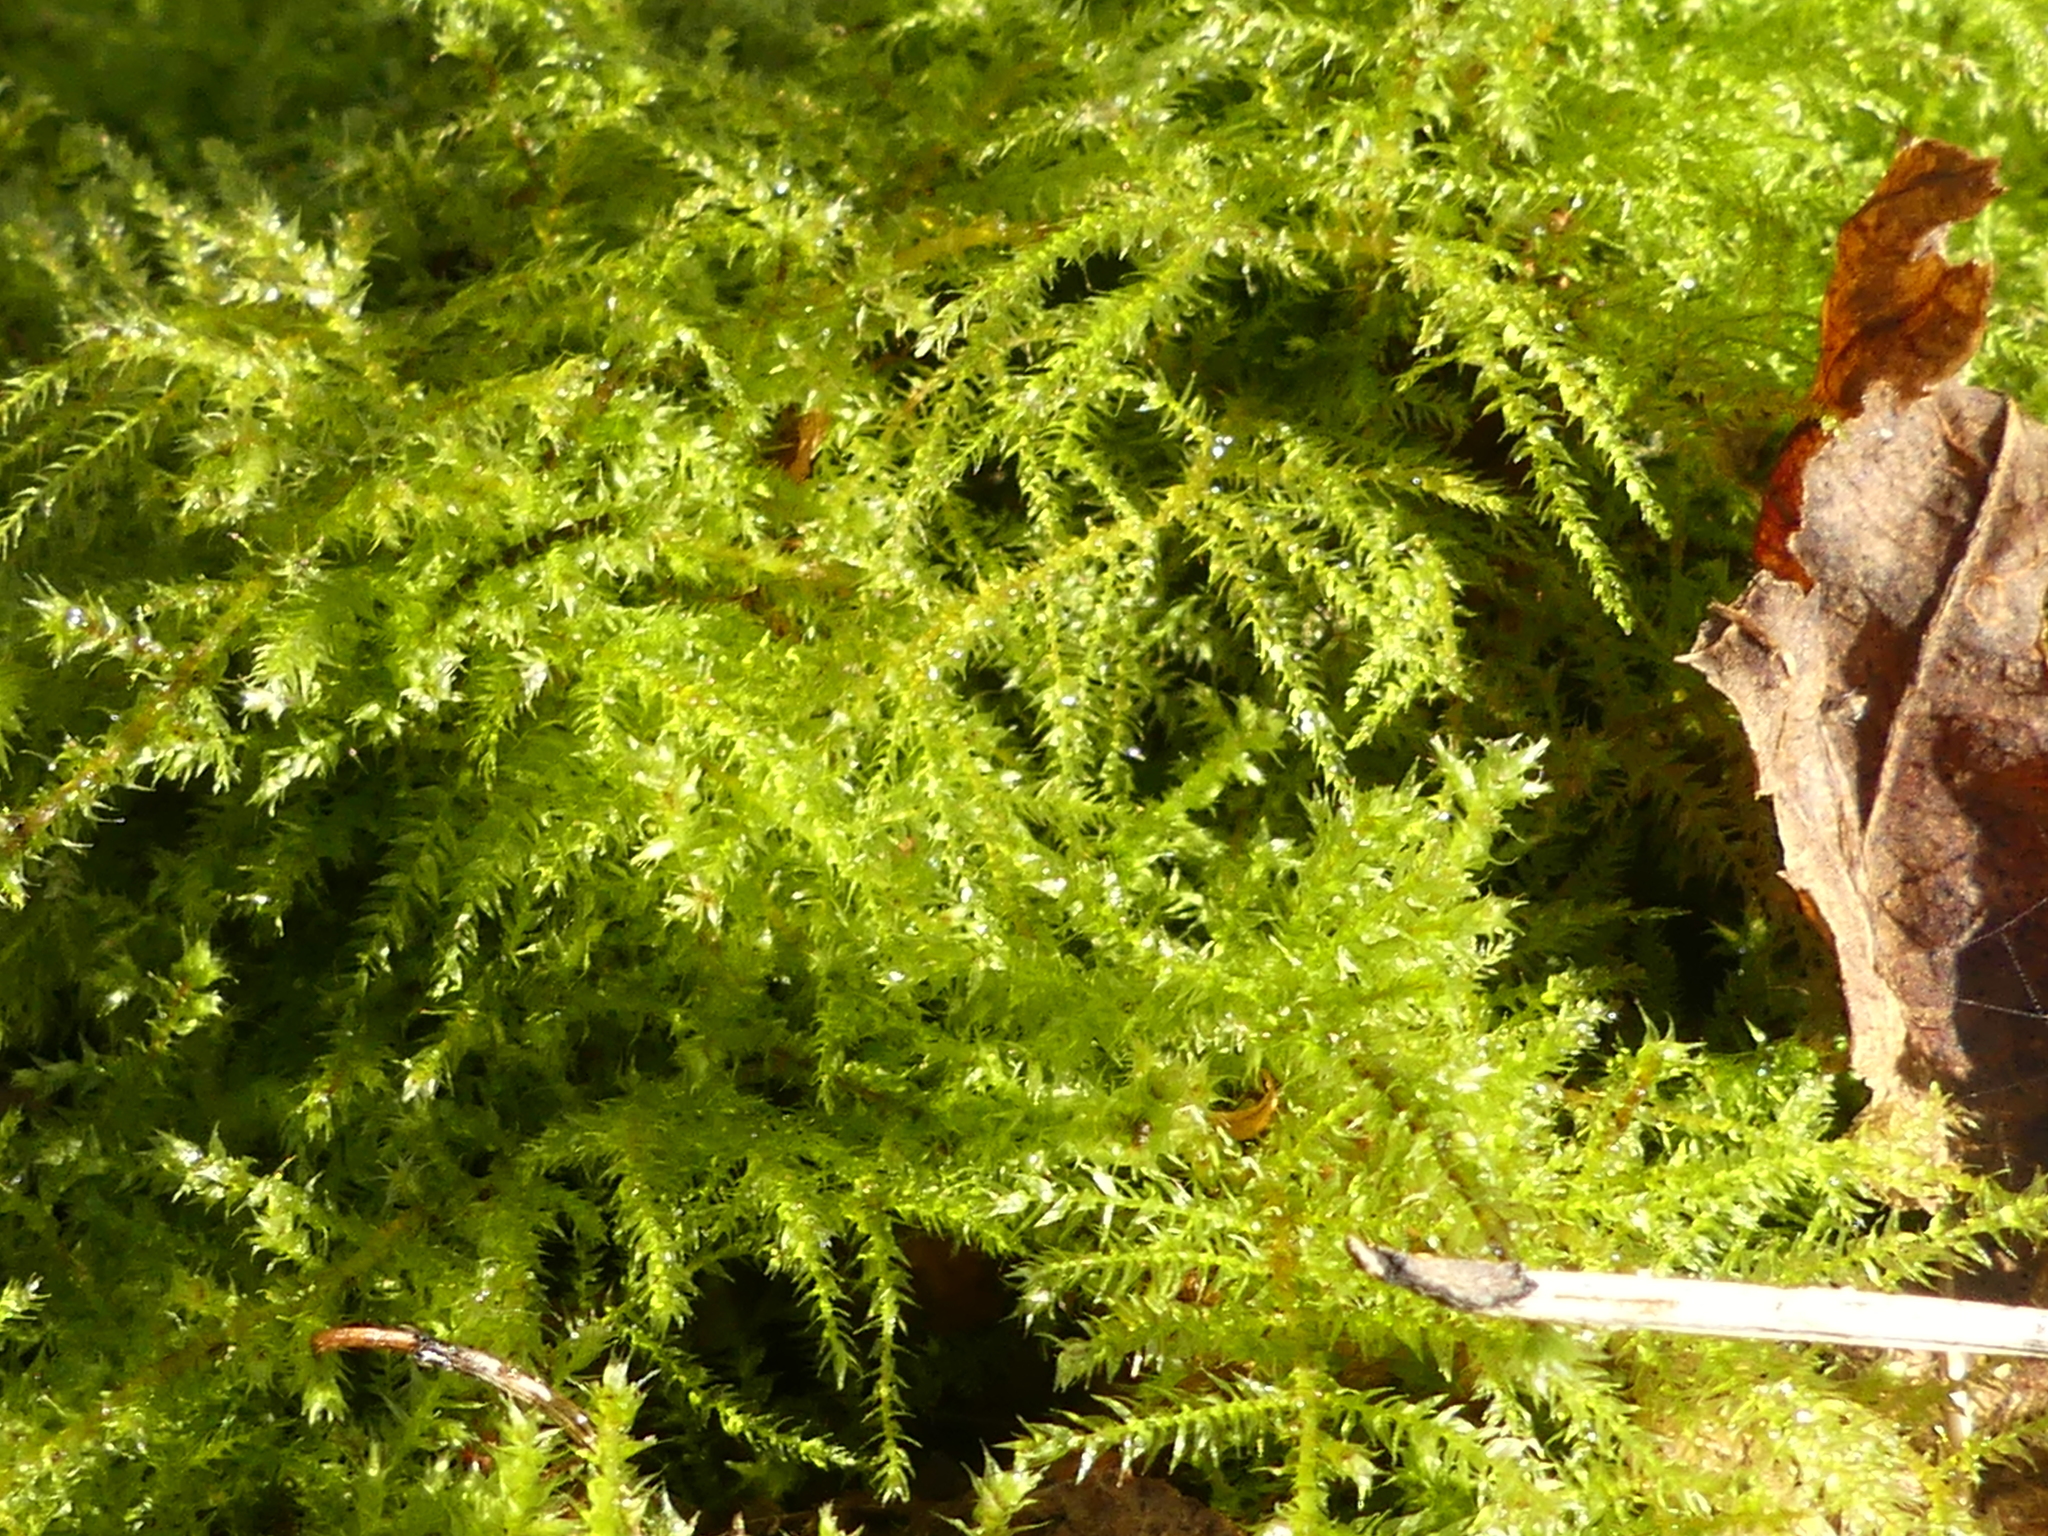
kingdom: Plantae
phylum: Bryophyta
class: Bryopsida
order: Hypnales
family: Brachytheciaceae
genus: Kindbergia
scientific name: Kindbergia praelonga
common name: Slender beaked moss
